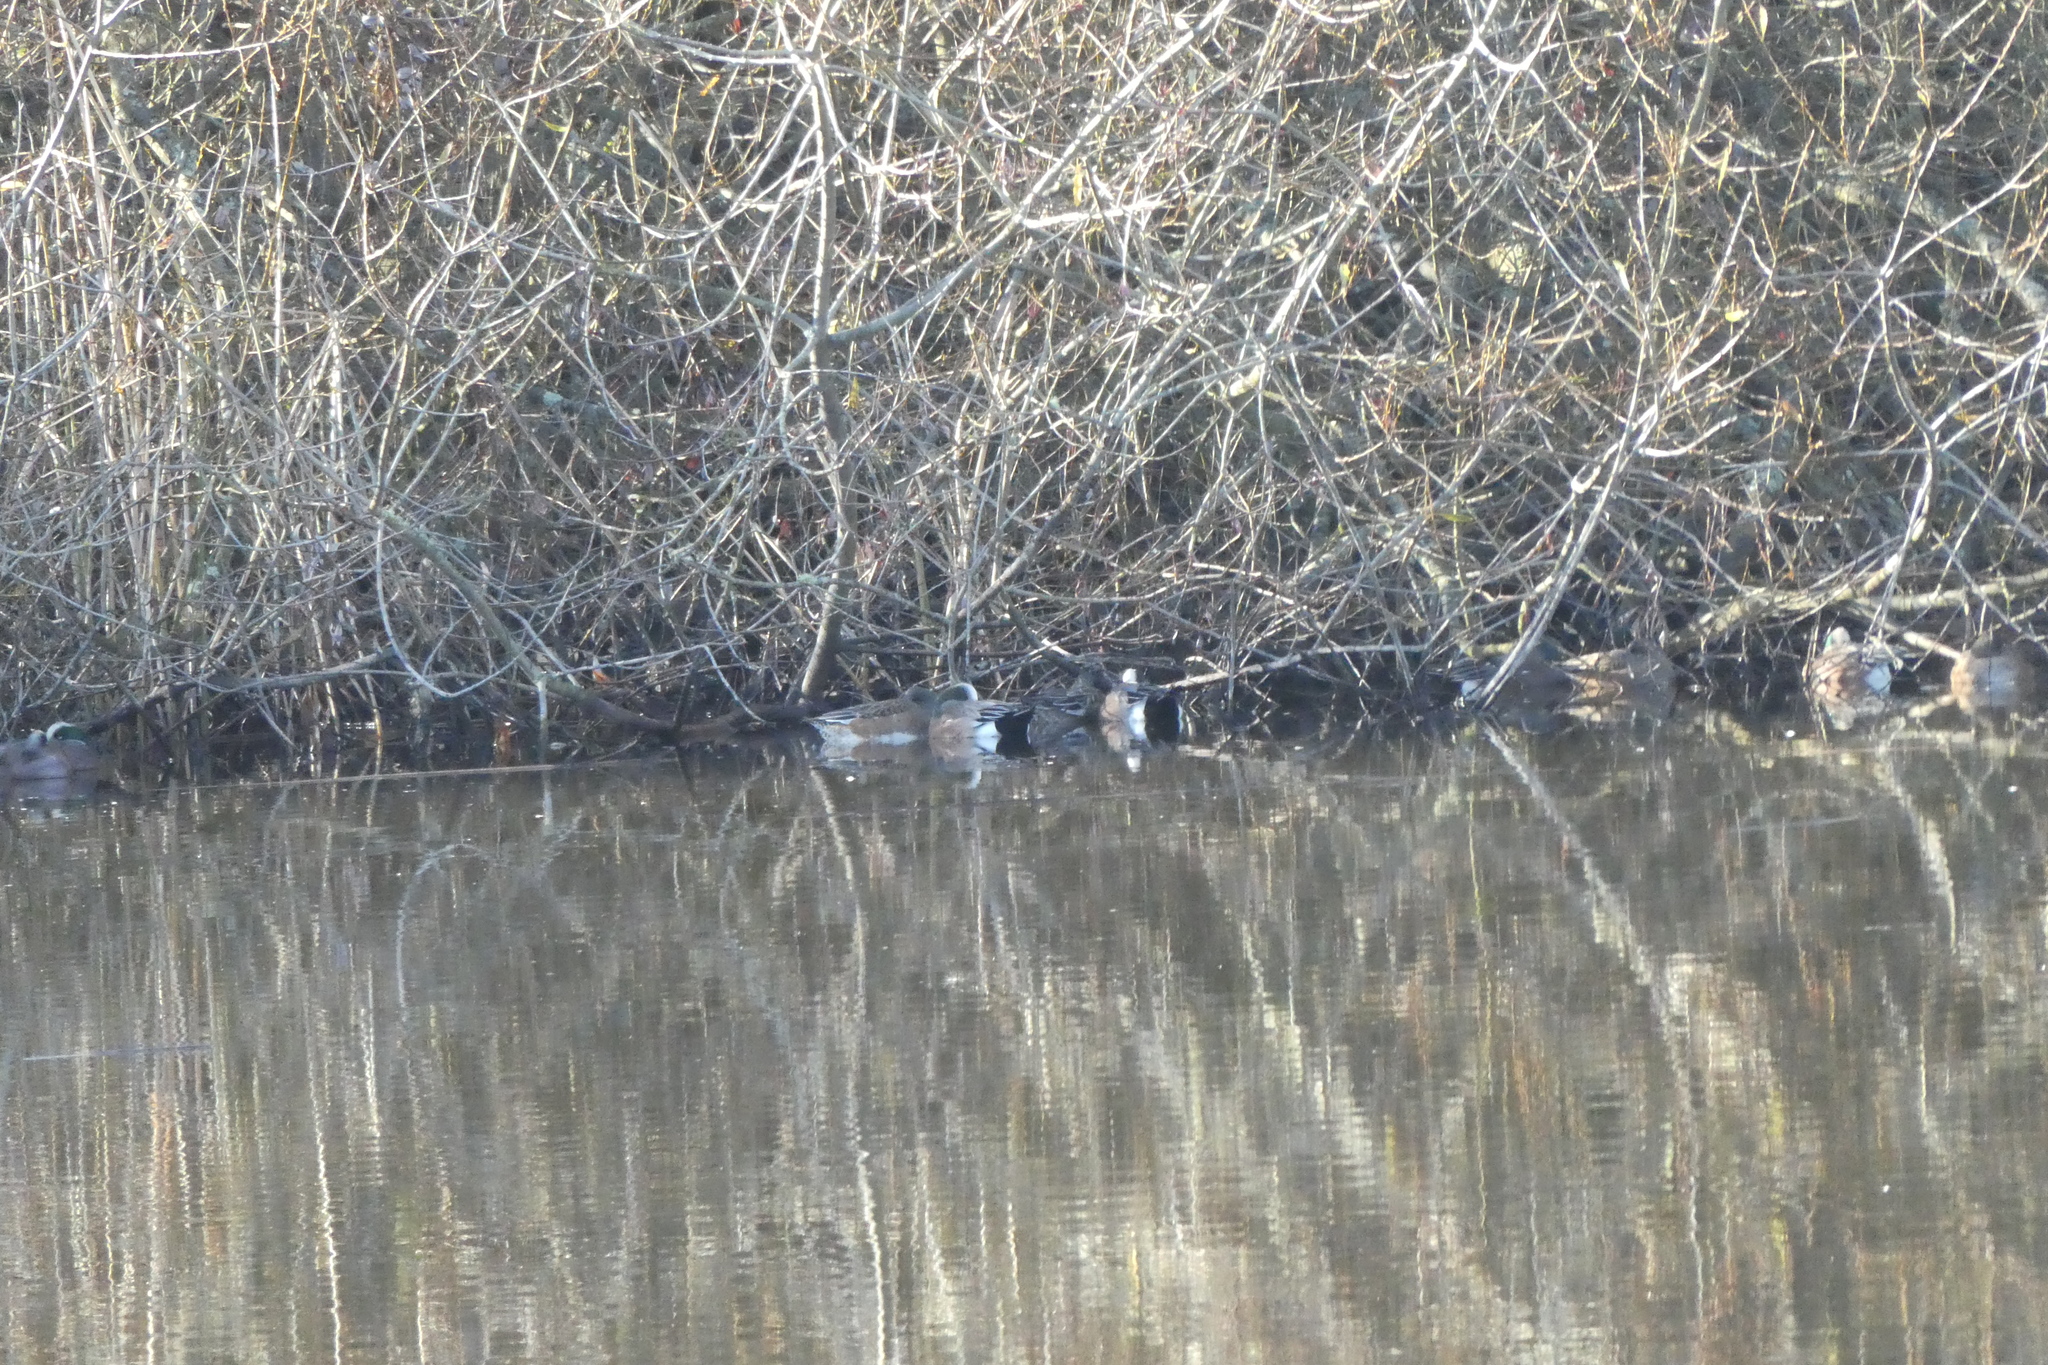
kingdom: Animalia
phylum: Chordata
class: Aves
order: Anseriformes
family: Anatidae
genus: Mareca
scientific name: Mareca americana
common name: American wigeon
